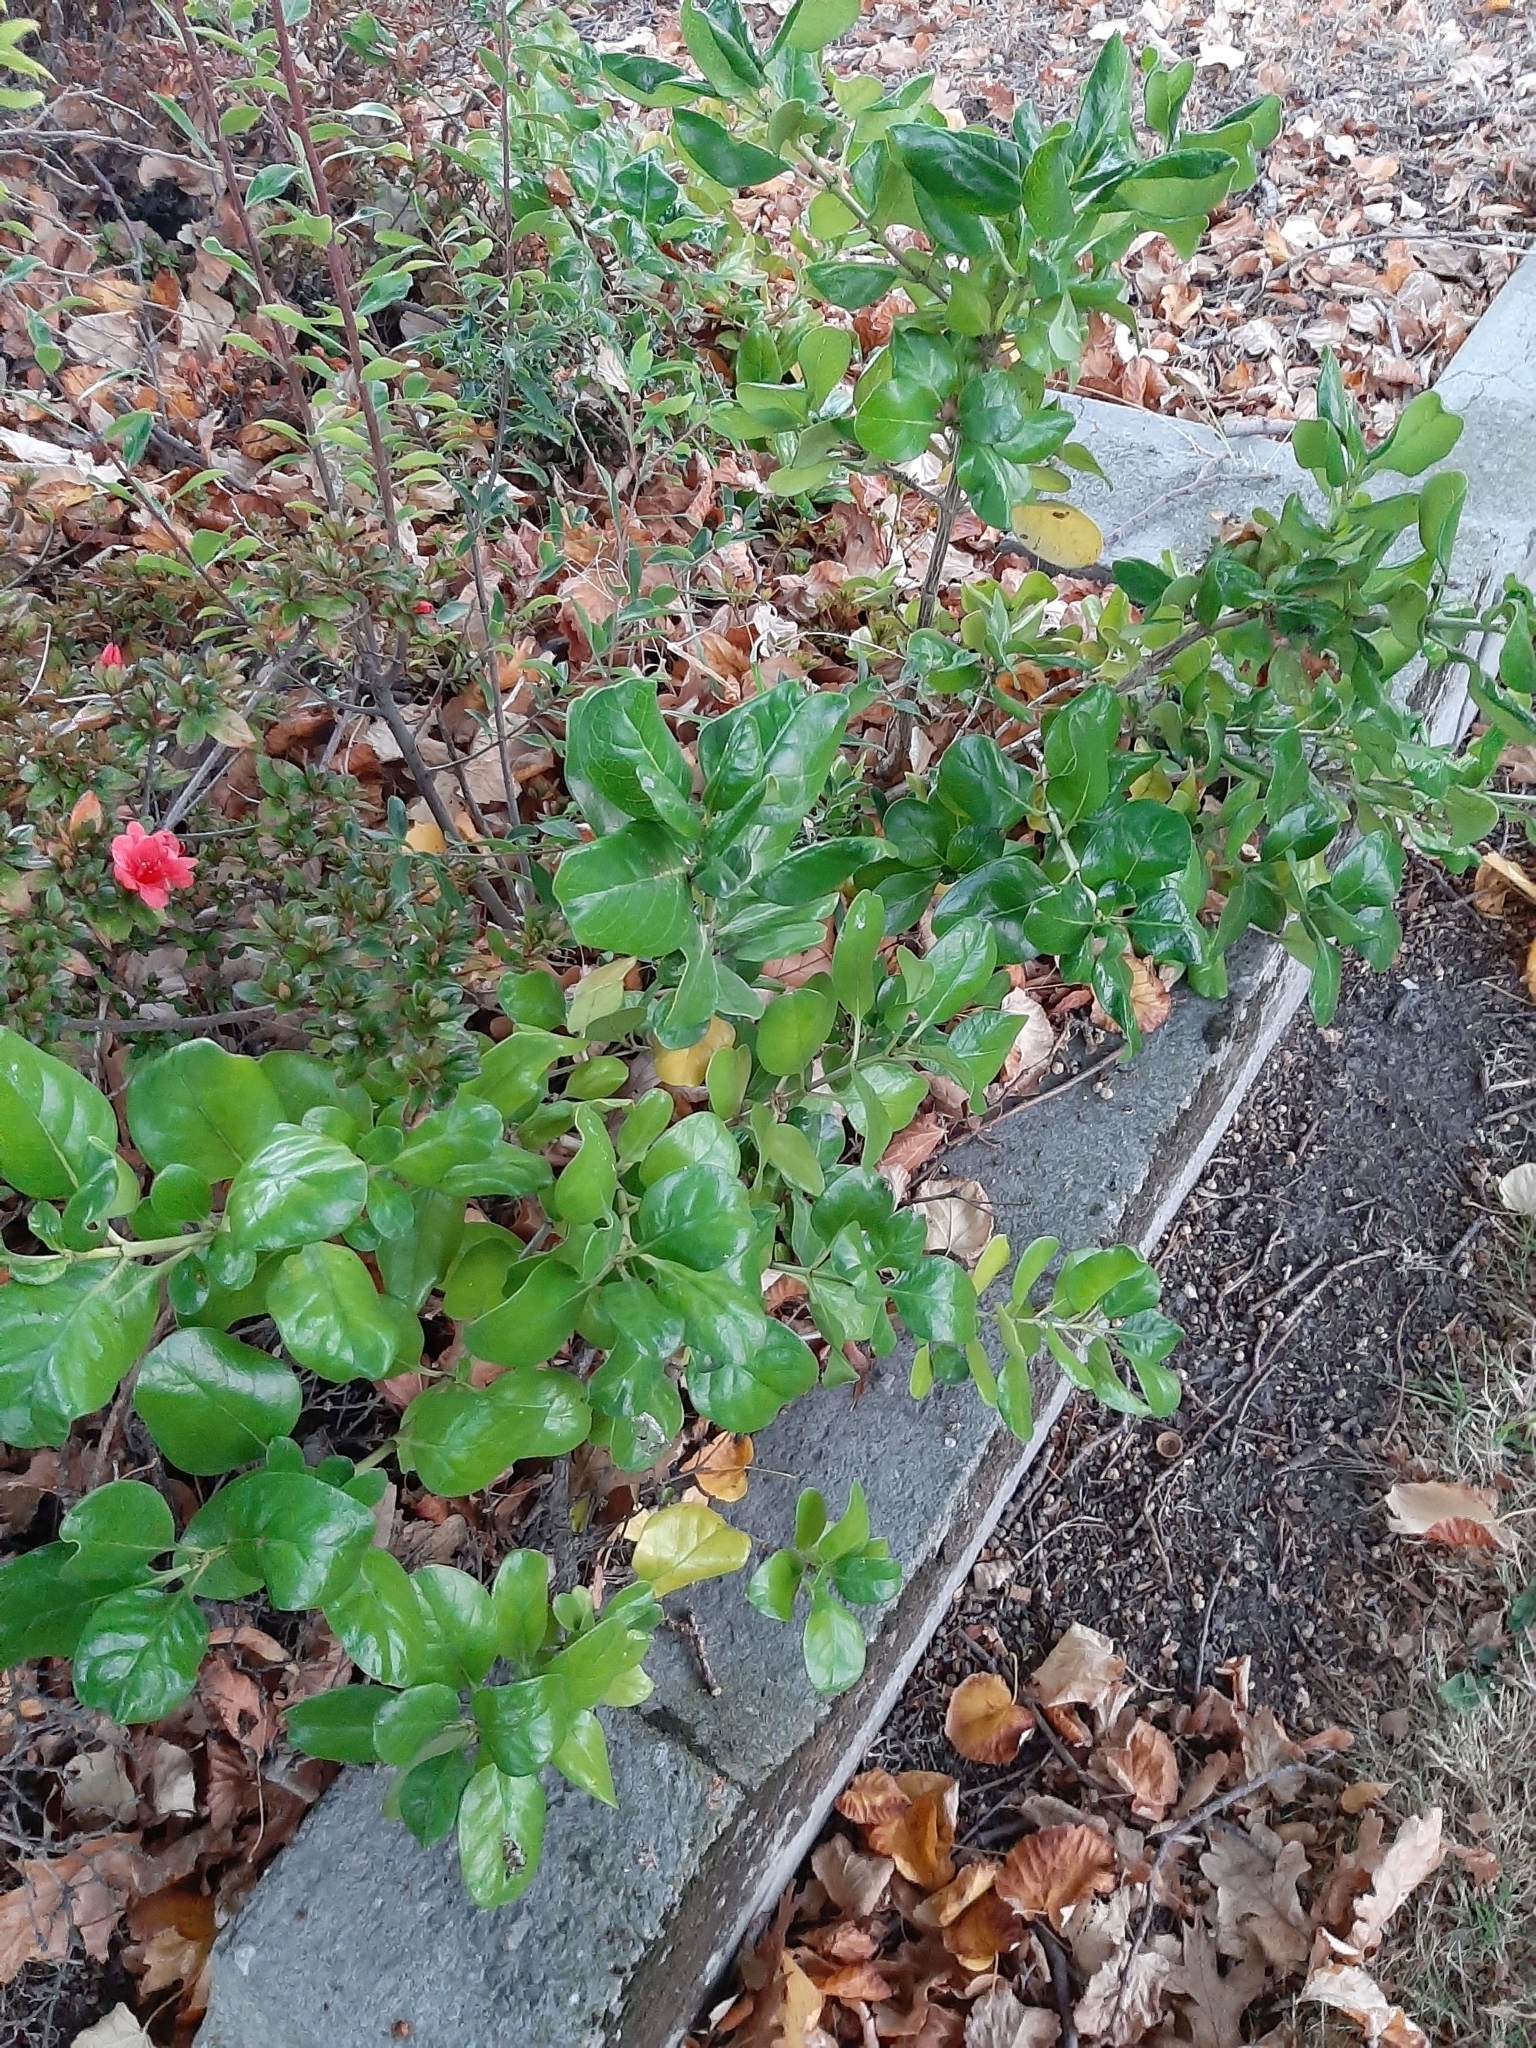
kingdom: Plantae
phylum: Tracheophyta
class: Magnoliopsida
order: Gentianales
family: Rubiaceae
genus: Coprosma
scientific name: Coprosma repens
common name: Tree bedstraw
